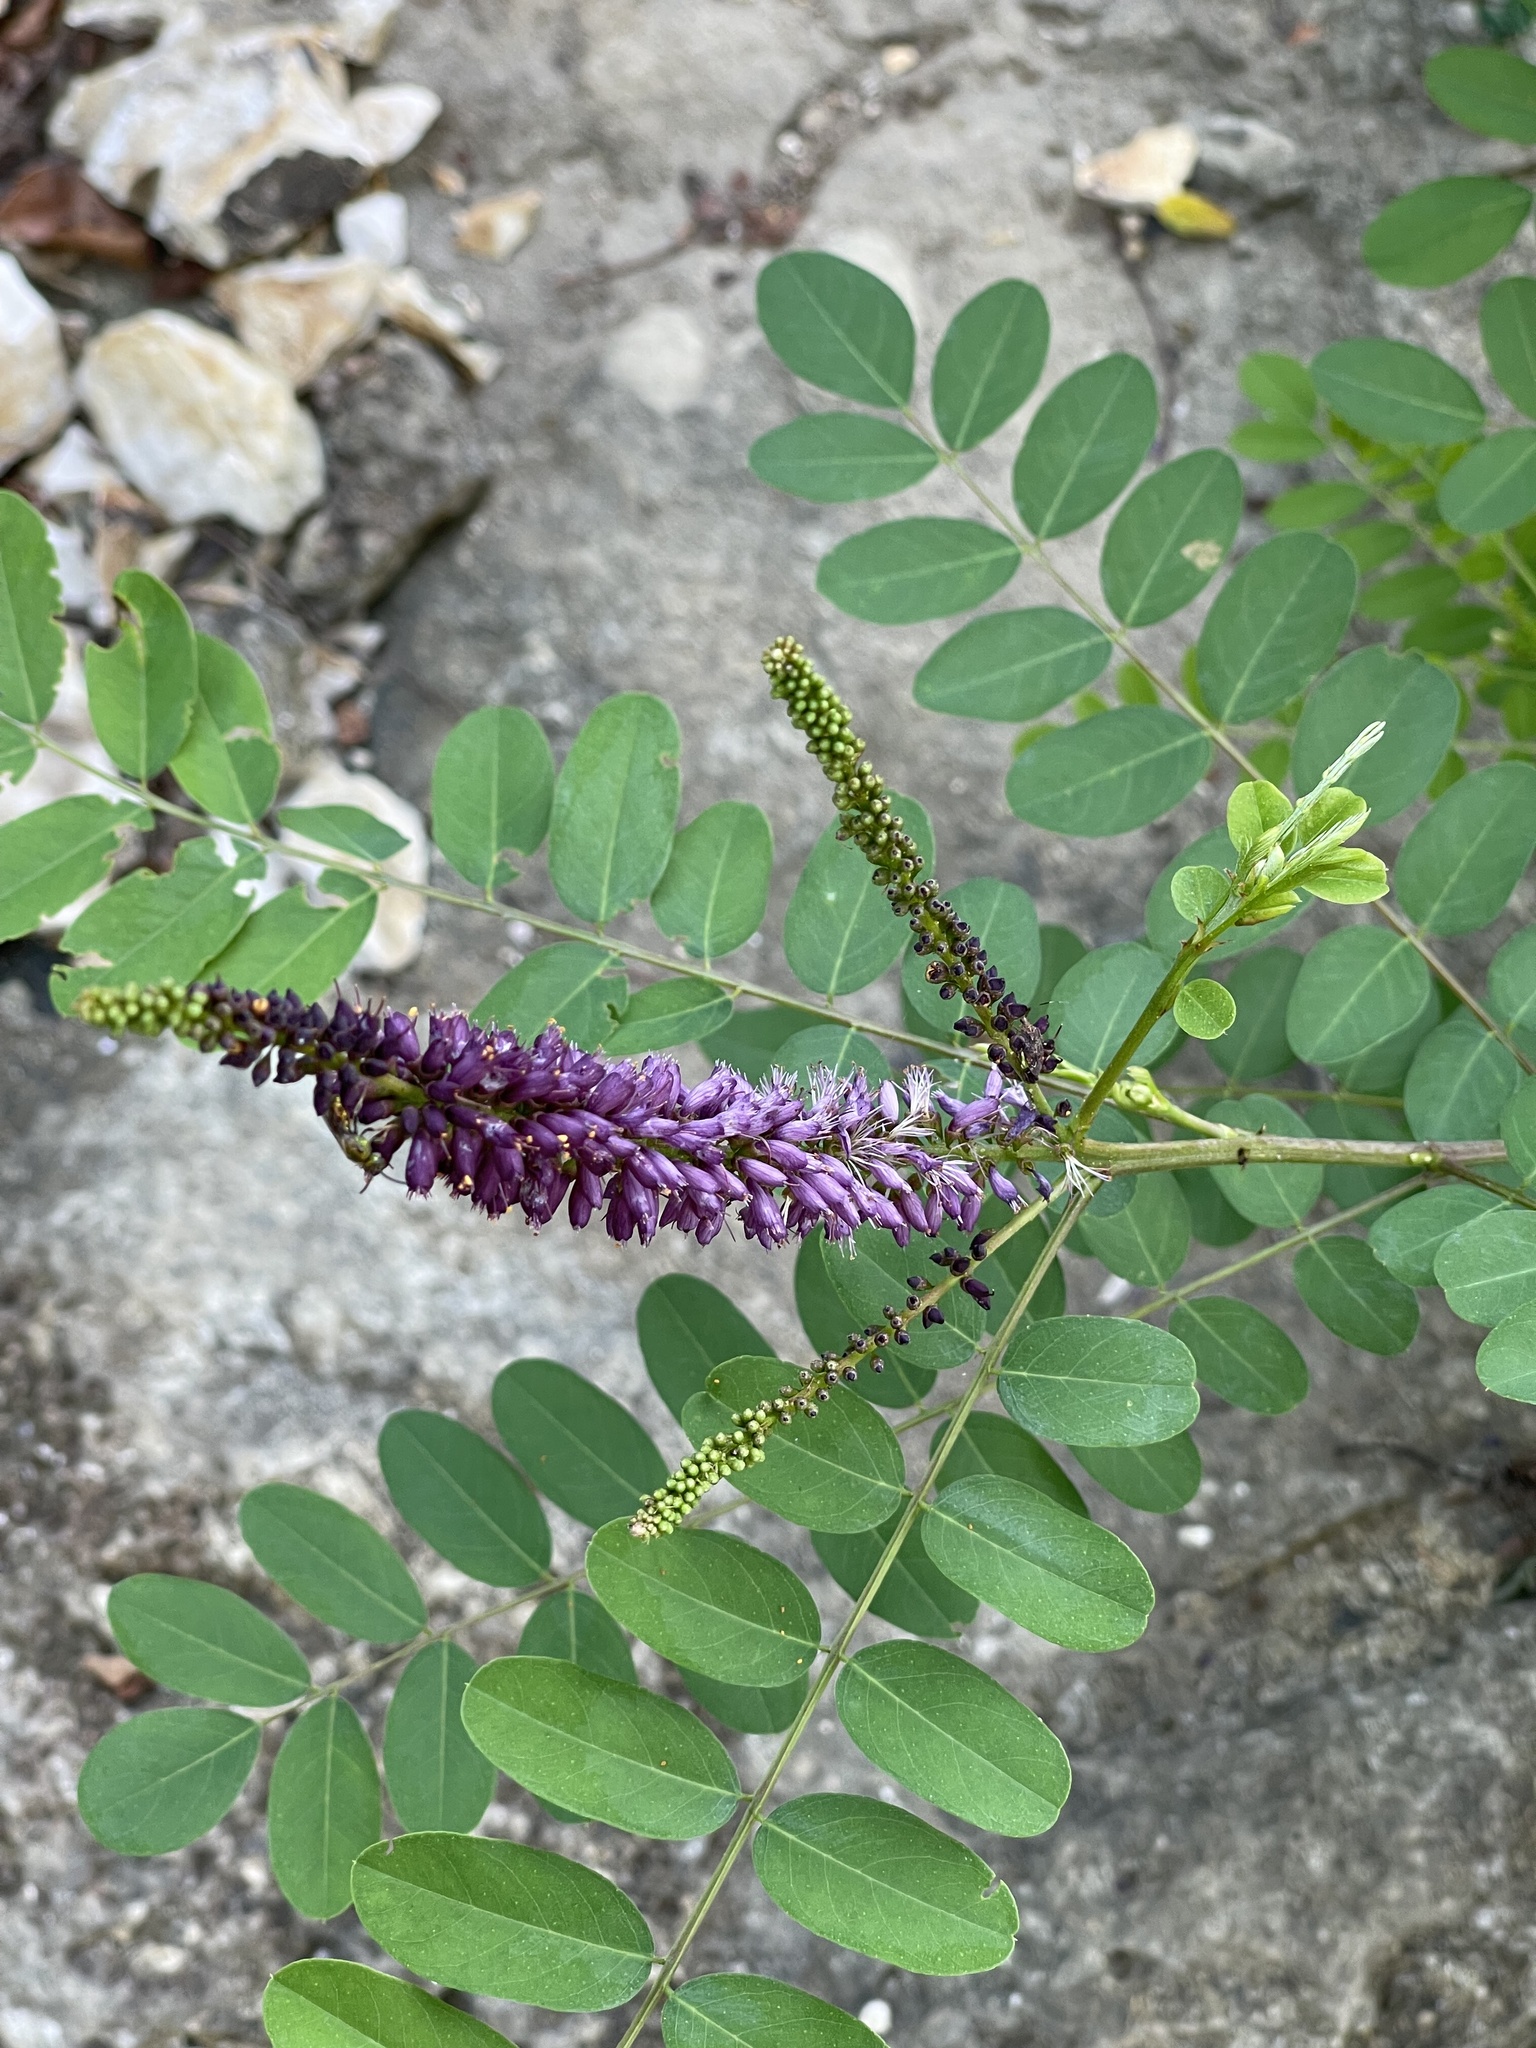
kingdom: Plantae
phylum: Tracheophyta
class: Magnoliopsida
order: Fabales
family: Fabaceae
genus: Amorpha
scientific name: Amorpha fruticosa
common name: False indigo
